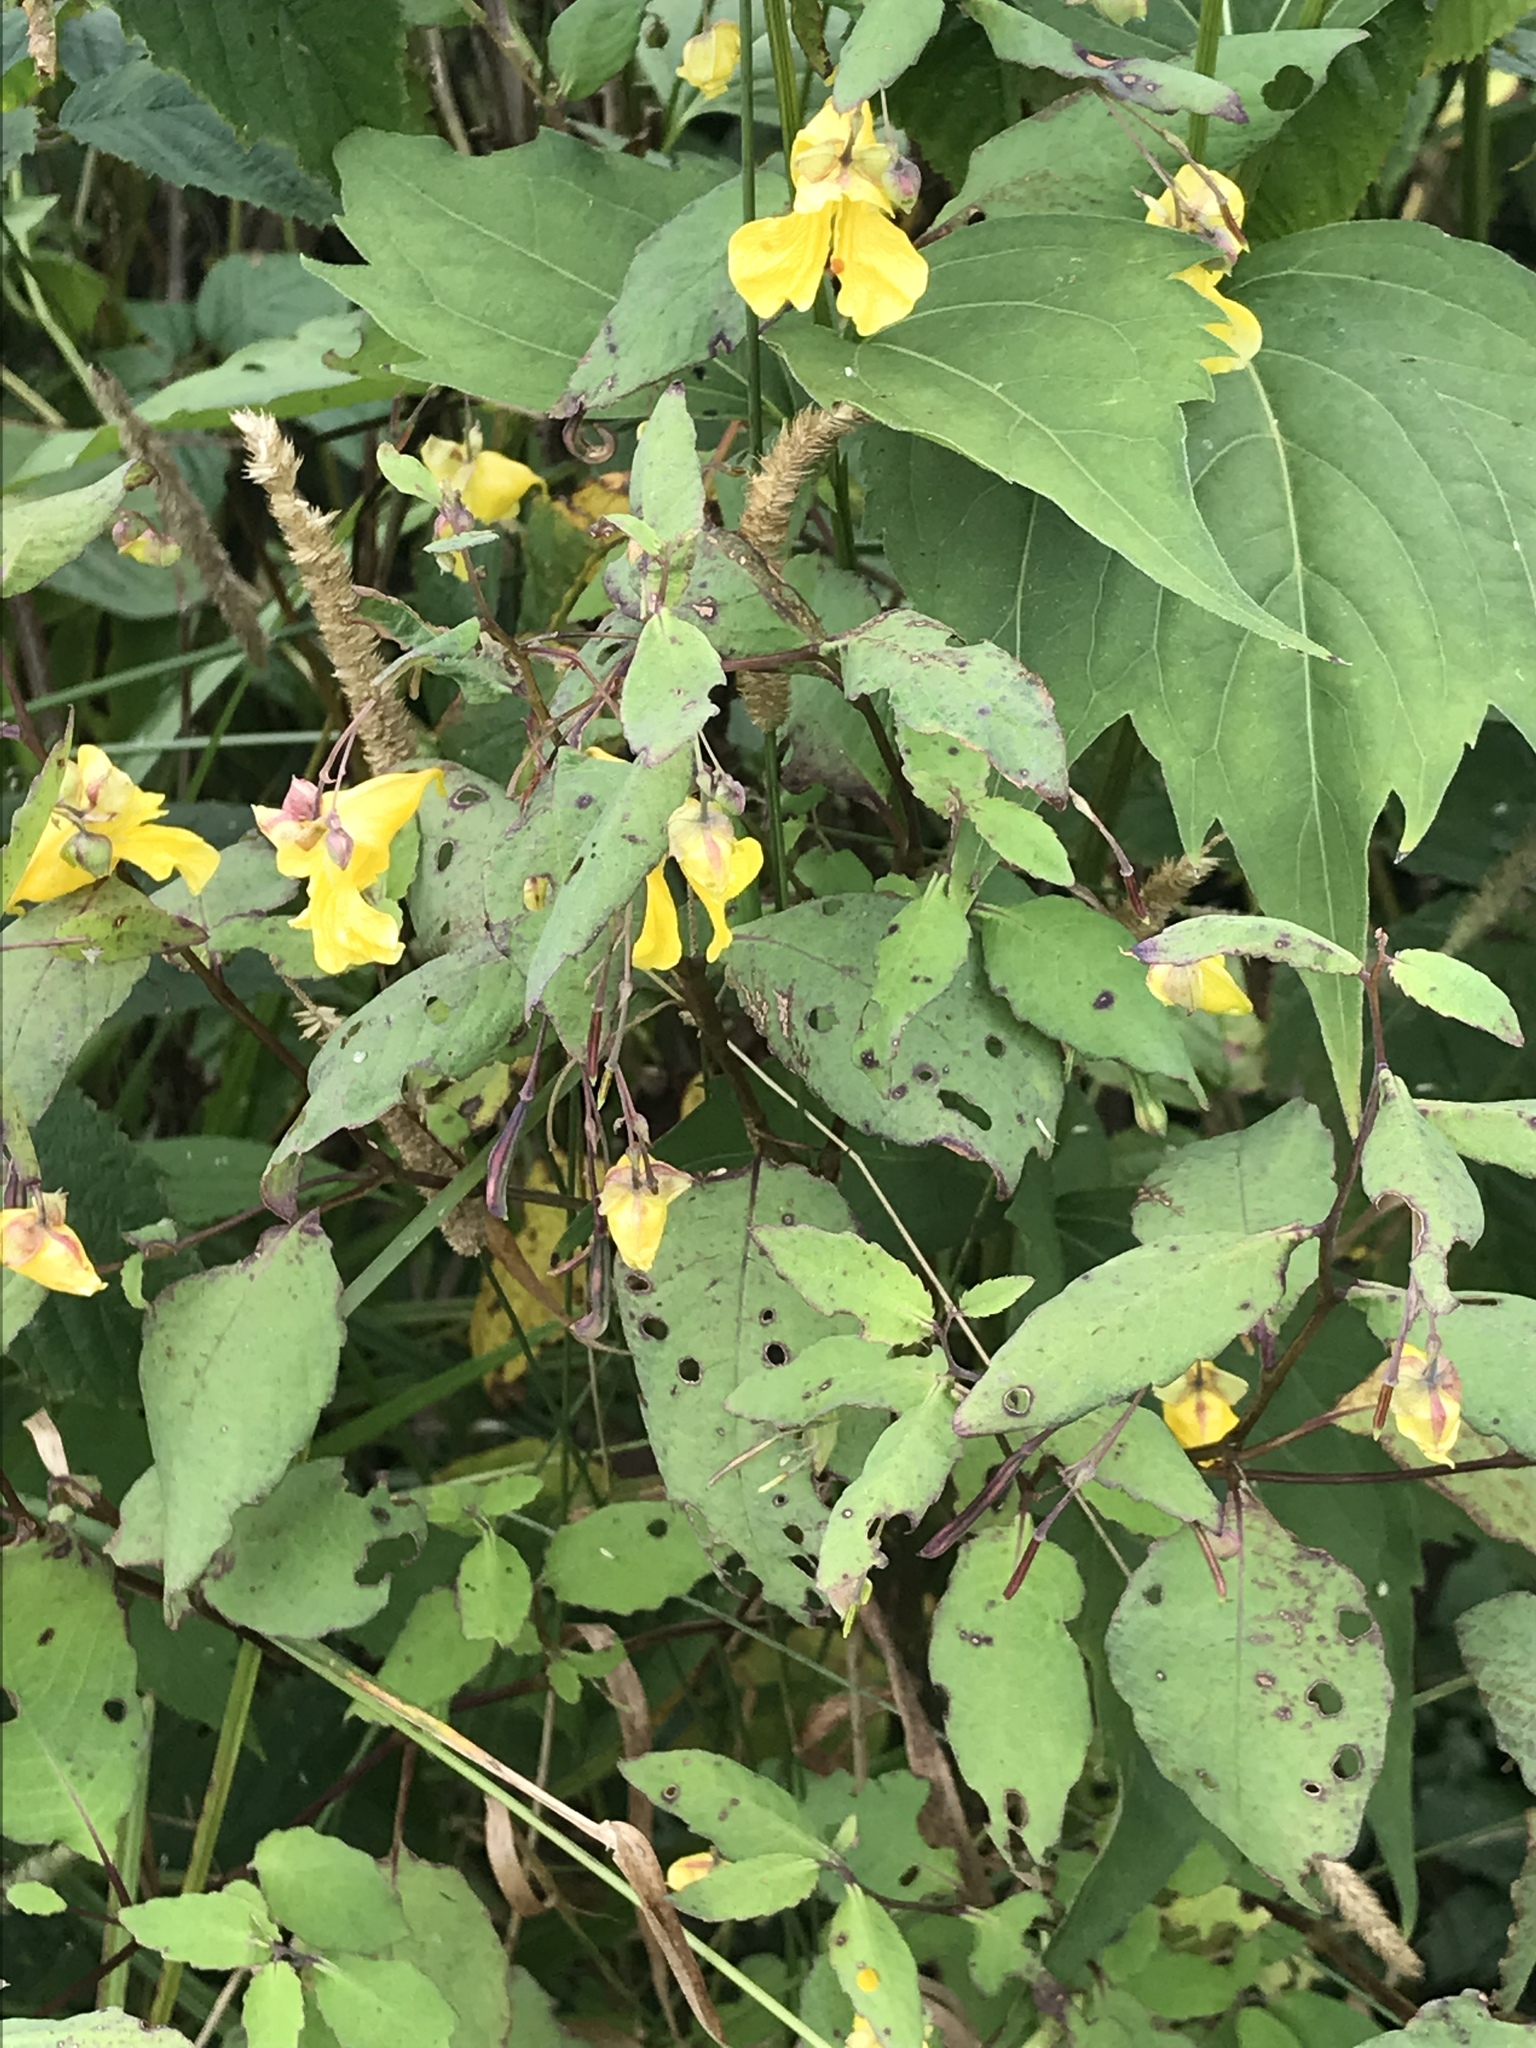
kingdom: Plantae
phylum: Tracheophyta
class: Magnoliopsida
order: Ericales
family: Balsaminaceae
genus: Impatiens
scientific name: Impatiens pallida
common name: Pale snapweed
